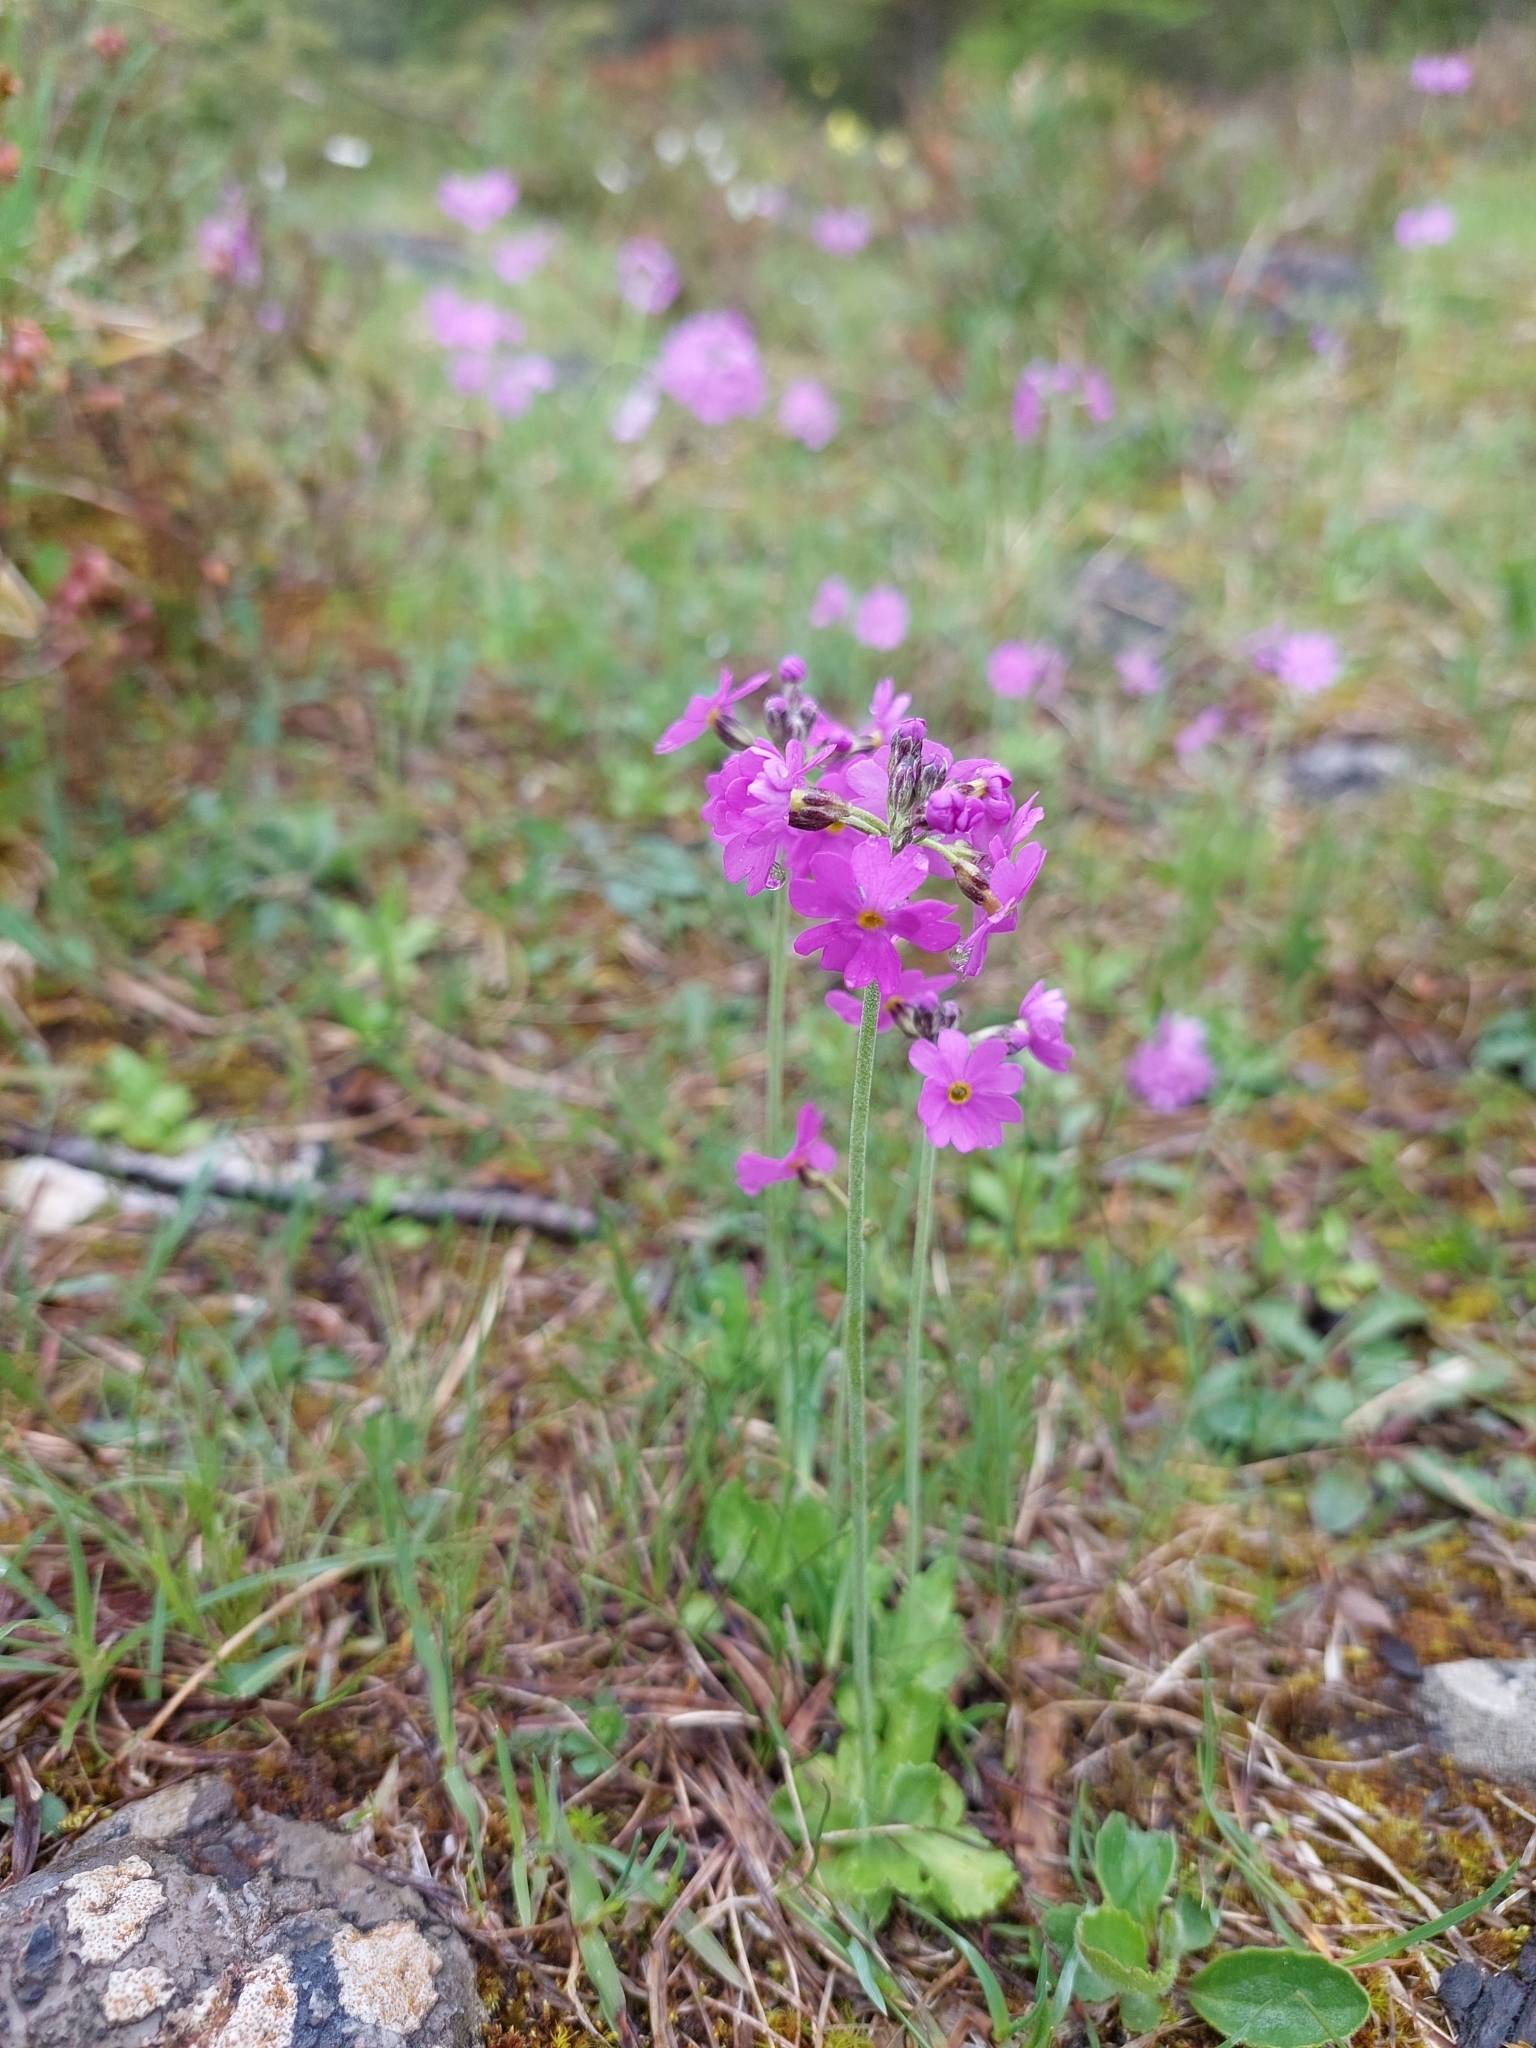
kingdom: Plantae
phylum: Tracheophyta
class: Magnoliopsida
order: Ericales
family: Primulaceae
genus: Primula
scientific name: Primula farinosa
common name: Bird's-eye primrose
